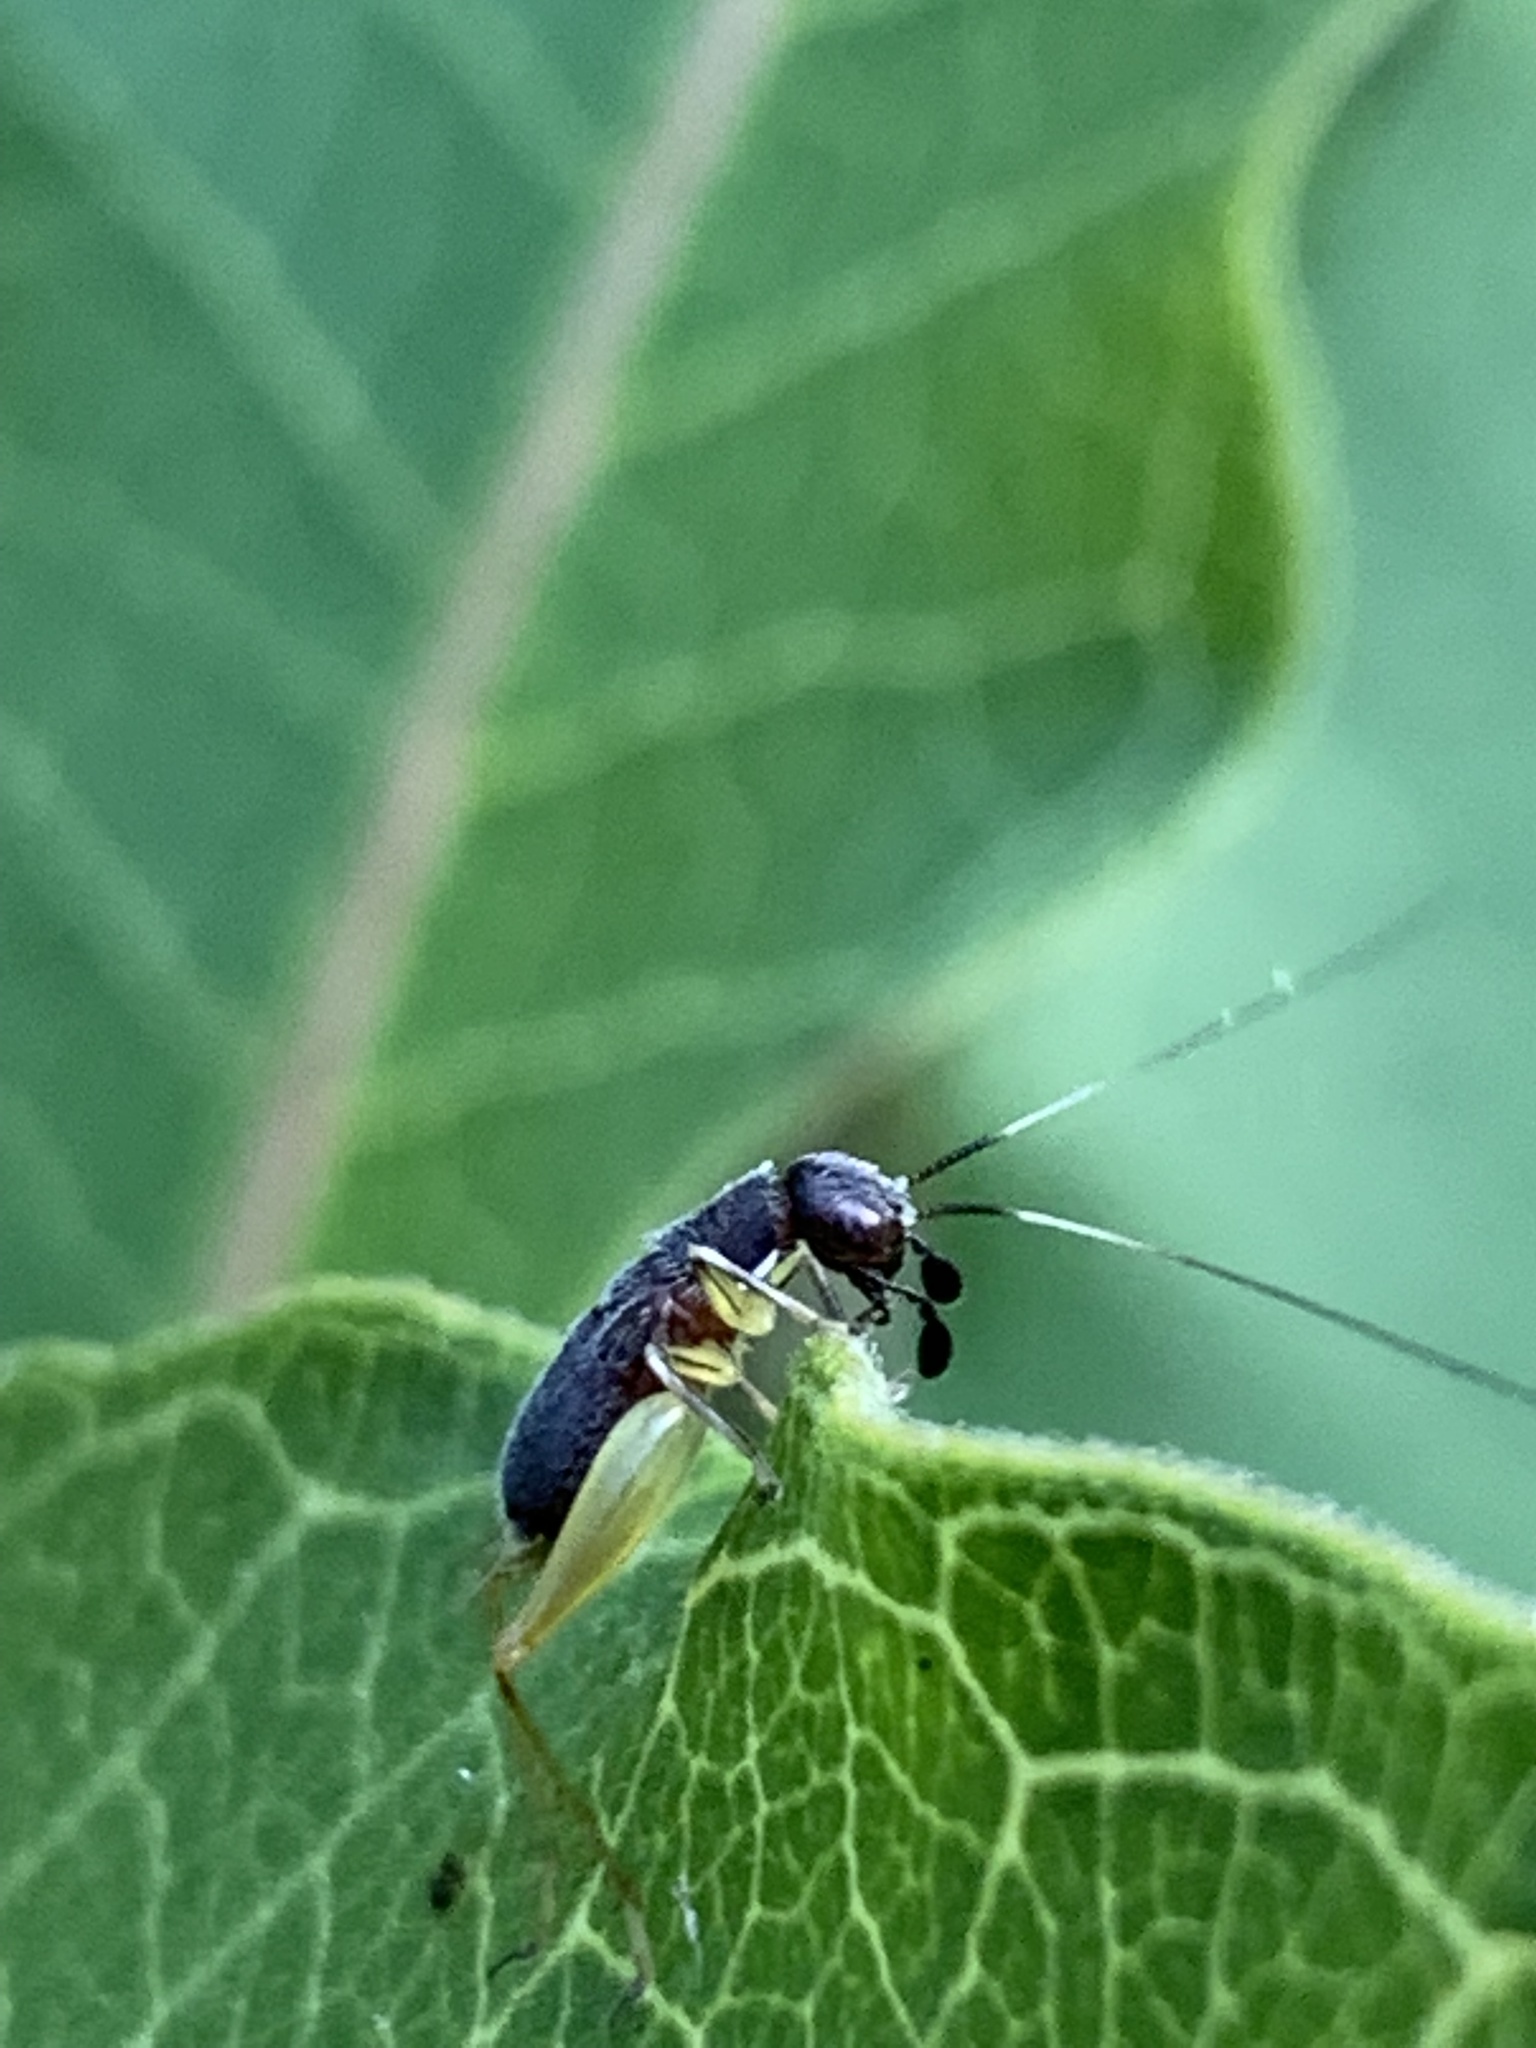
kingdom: Animalia
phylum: Arthropoda
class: Insecta
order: Orthoptera
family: Trigonidiidae
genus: Phyllopalpus
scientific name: Phyllopalpus pulchellus
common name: Handsome trig
